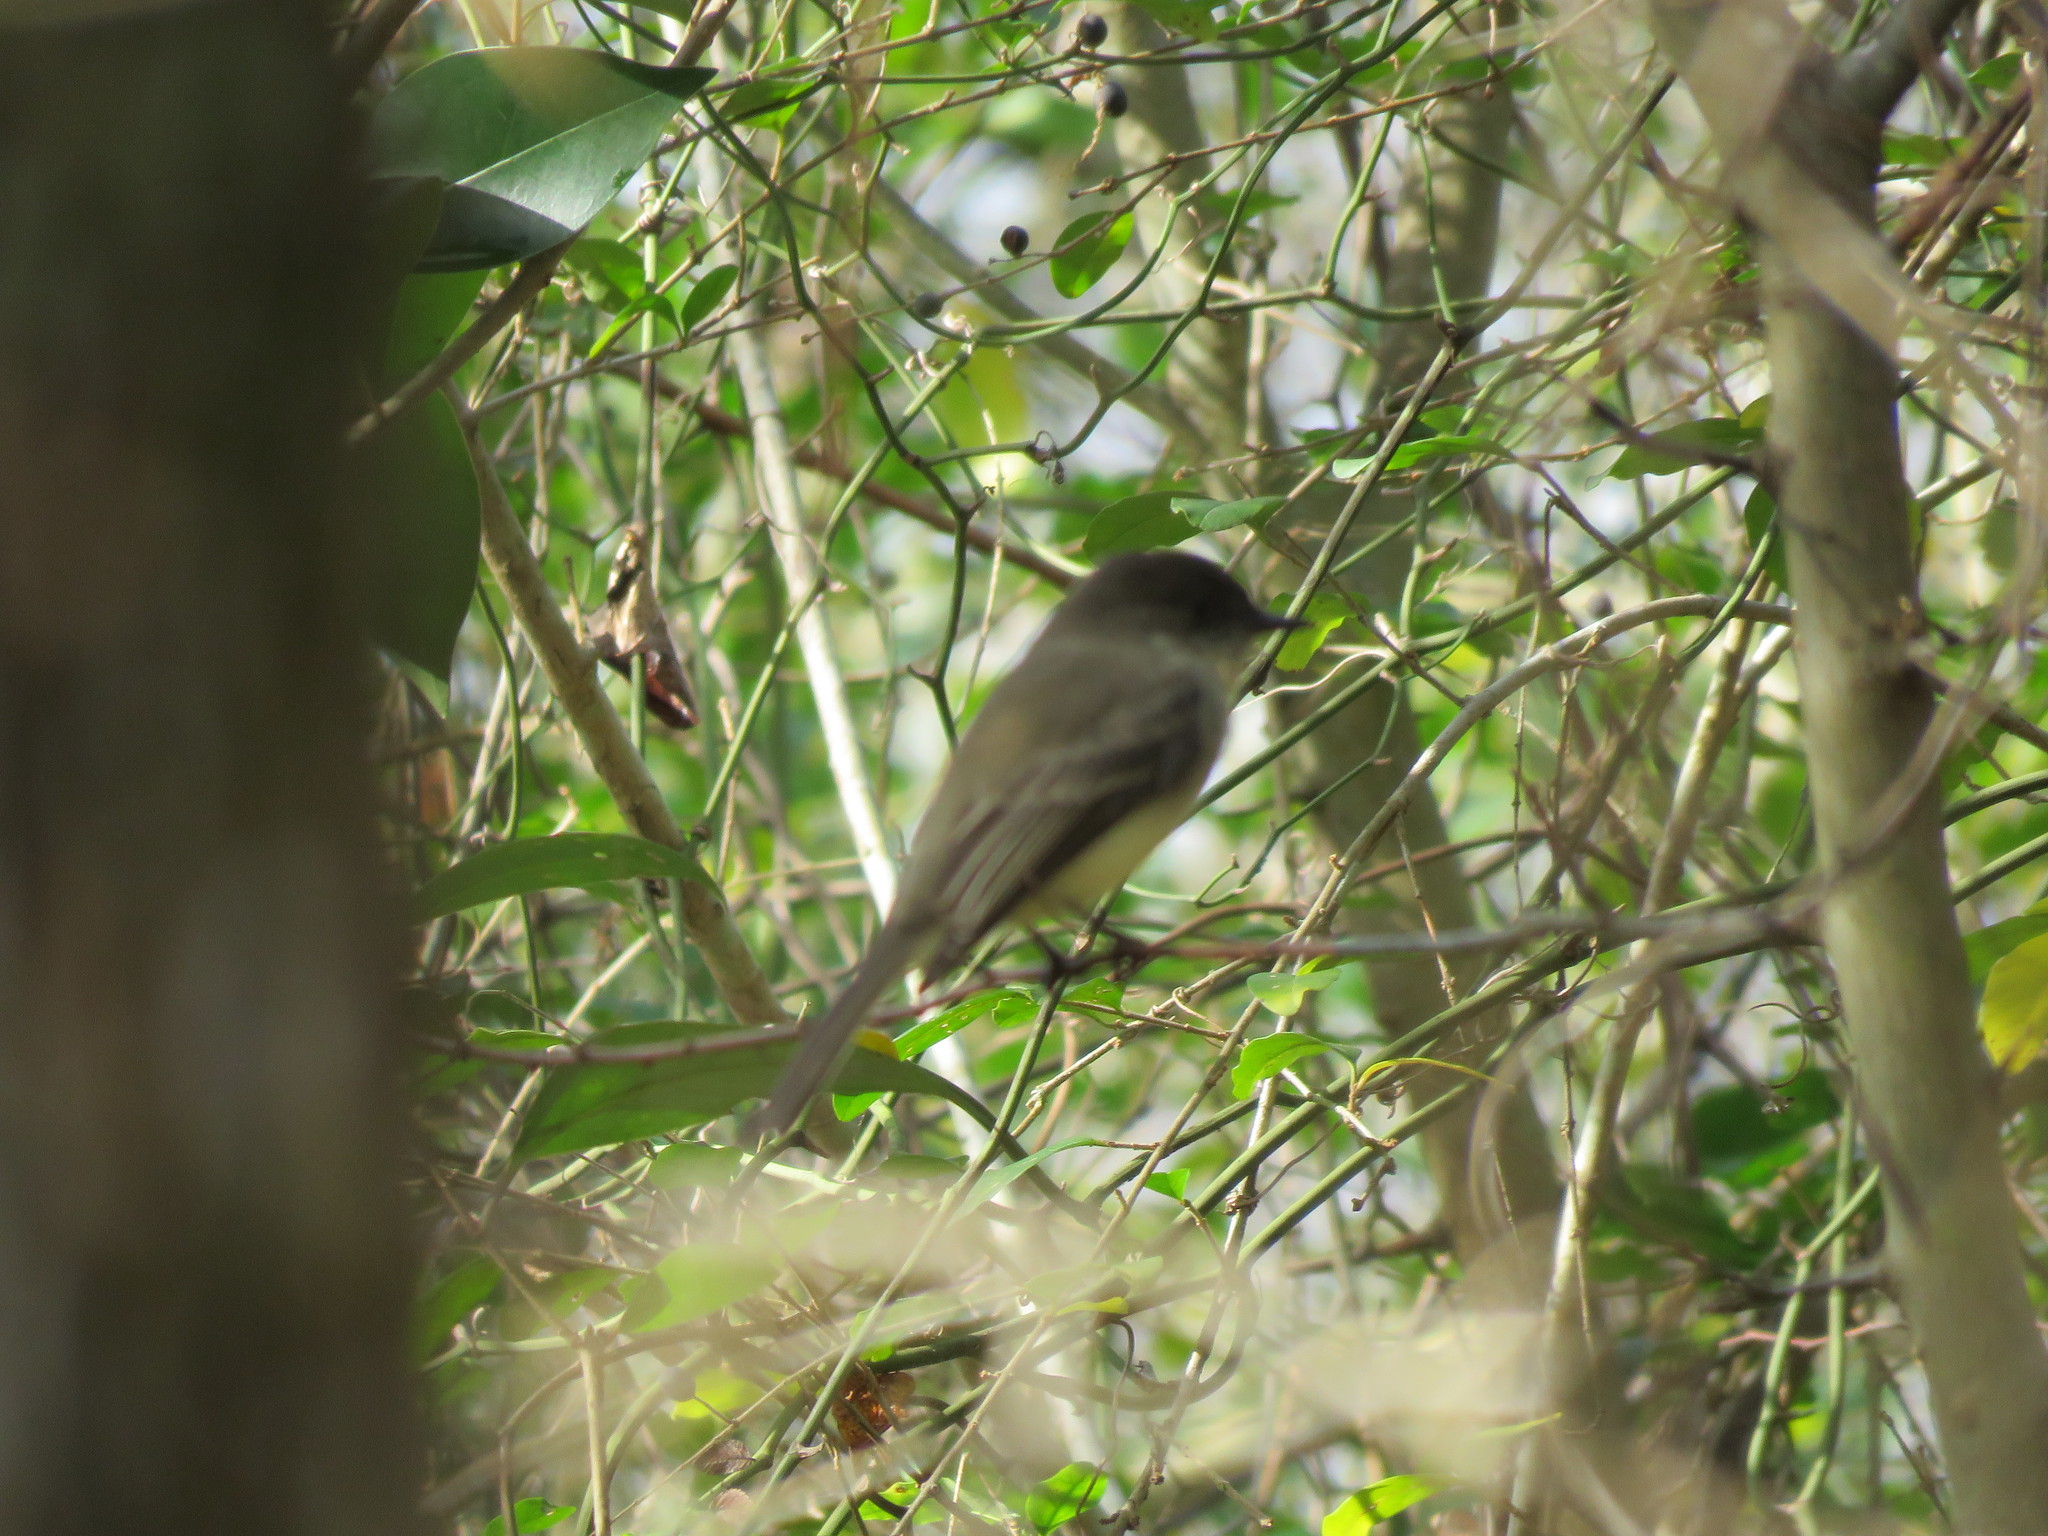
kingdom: Animalia
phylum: Chordata
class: Aves
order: Passeriformes
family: Tyrannidae
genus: Sayornis
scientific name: Sayornis phoebe
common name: Eastern phoebe
